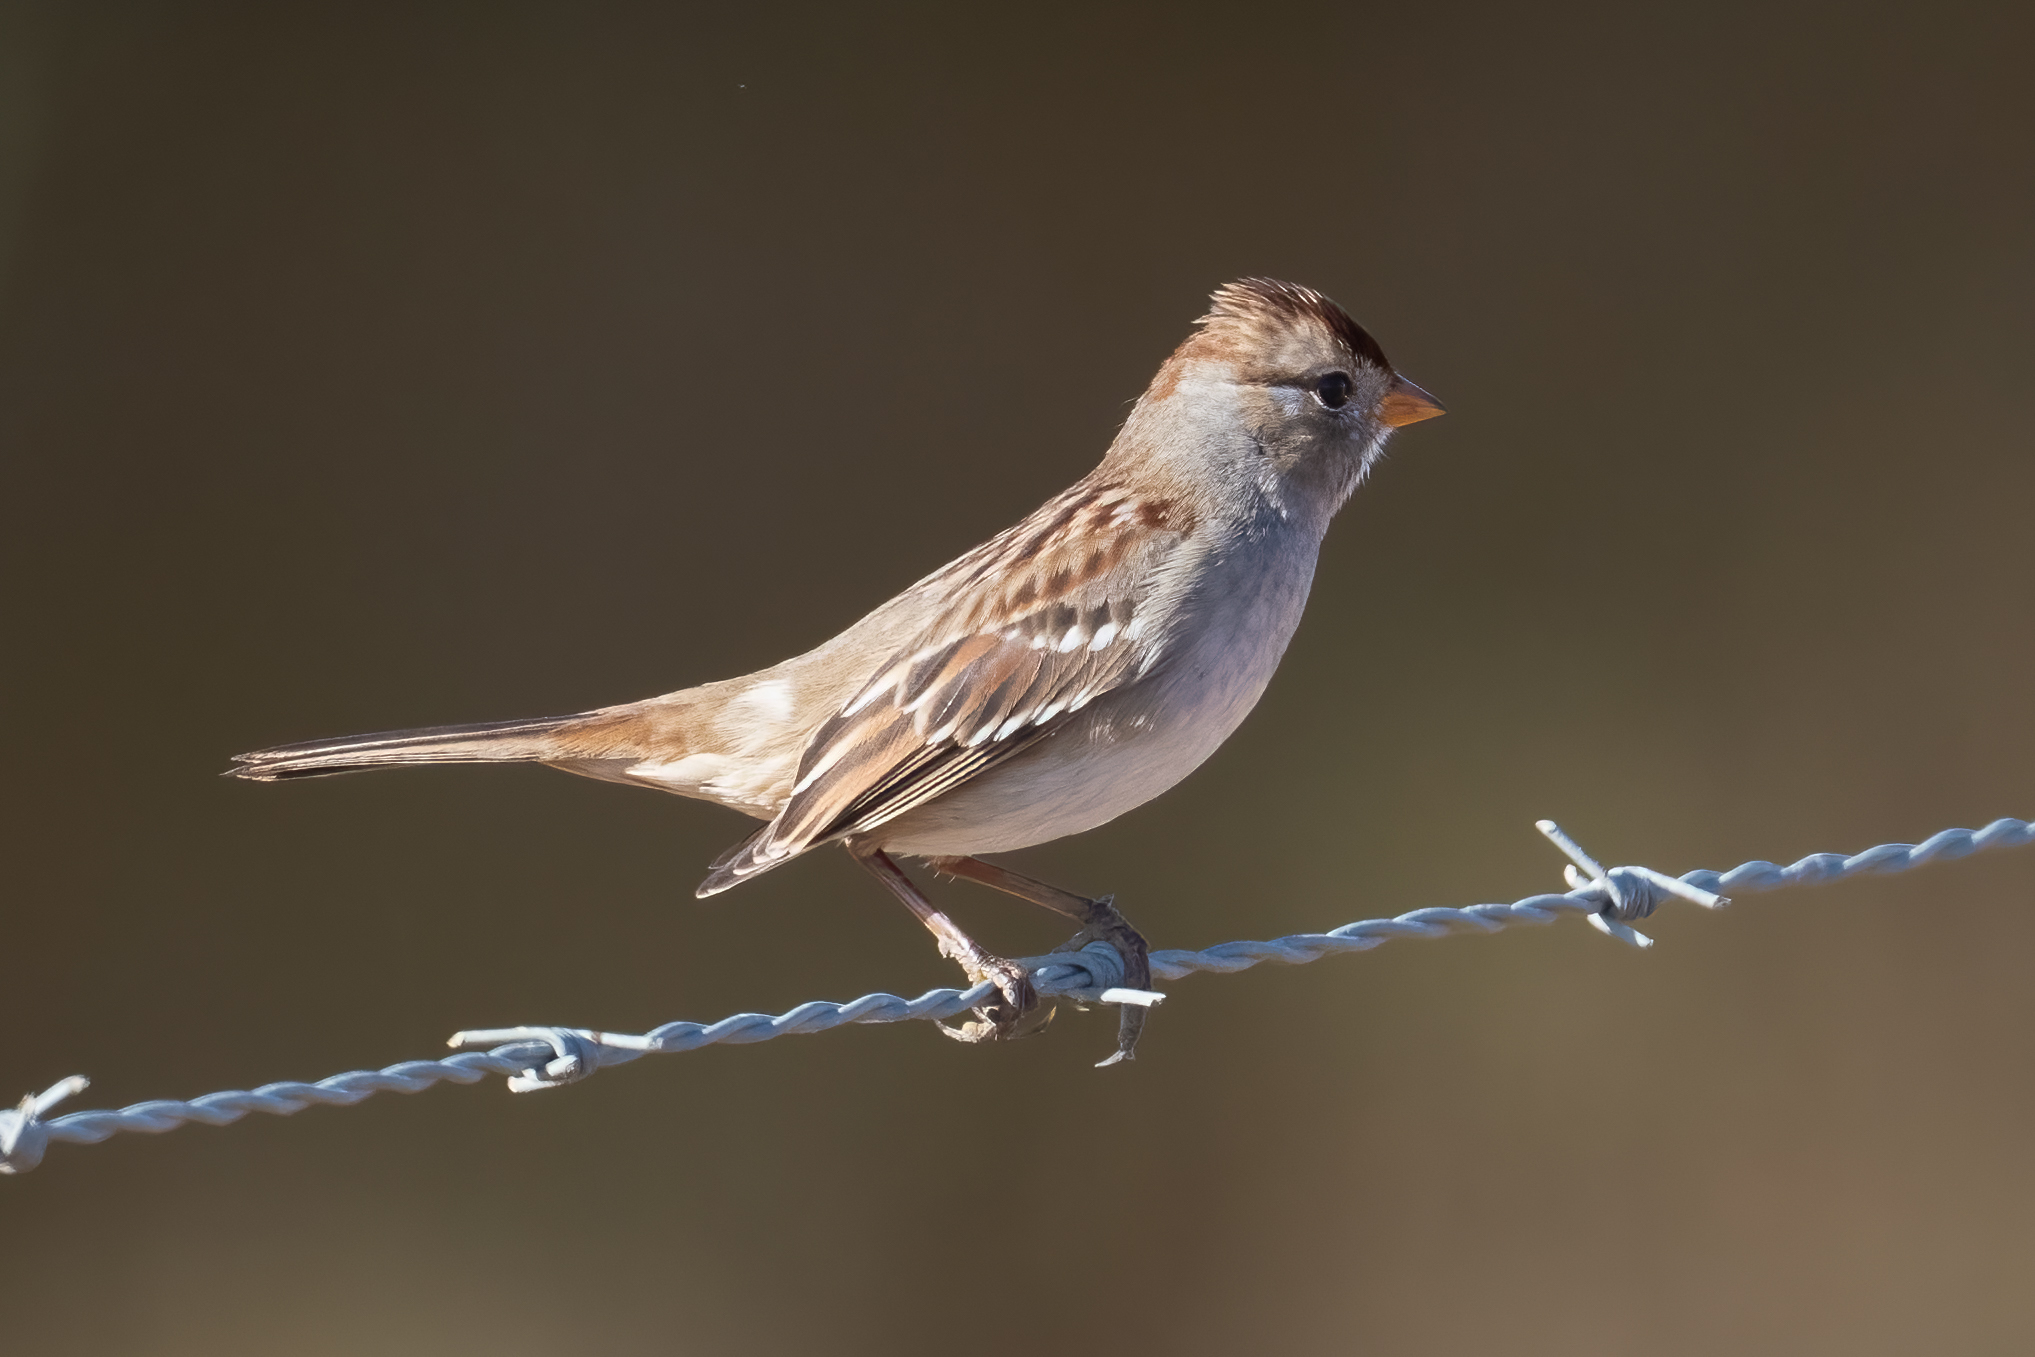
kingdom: Animalia
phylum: Chordata
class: Aves
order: Passeriformes
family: Passerellidae
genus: Zonotrichia
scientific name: Zonotrichia leucophrys
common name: White-crowned sparrow
